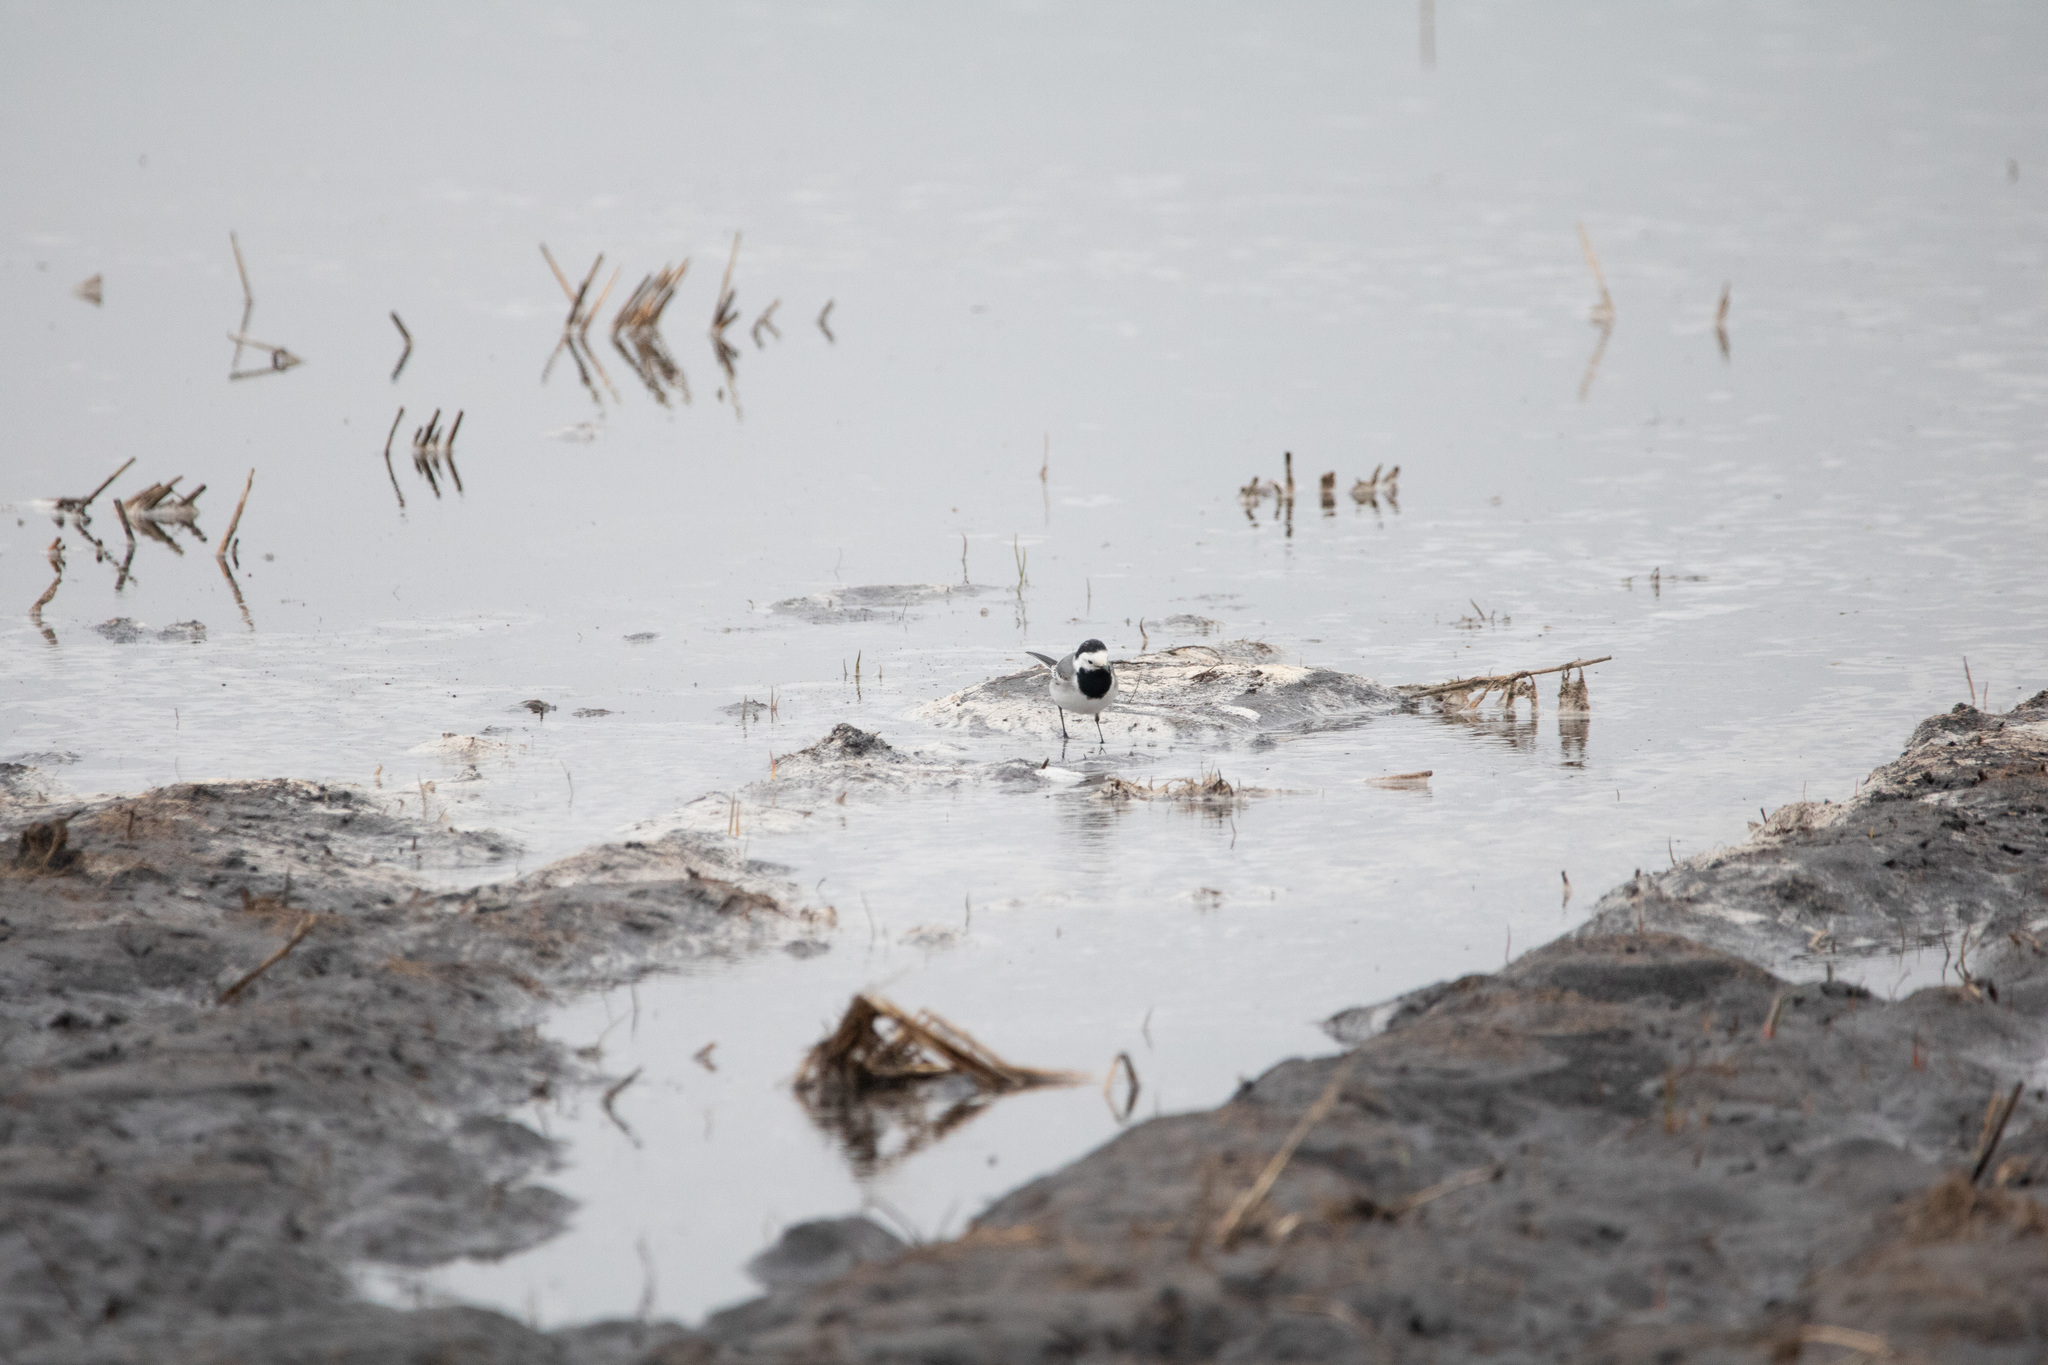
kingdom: Animalia
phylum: Chordata
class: Aves
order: Passeriformes
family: Motacillidae
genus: Motacilla
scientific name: Motacilla alba
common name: White wagtail
